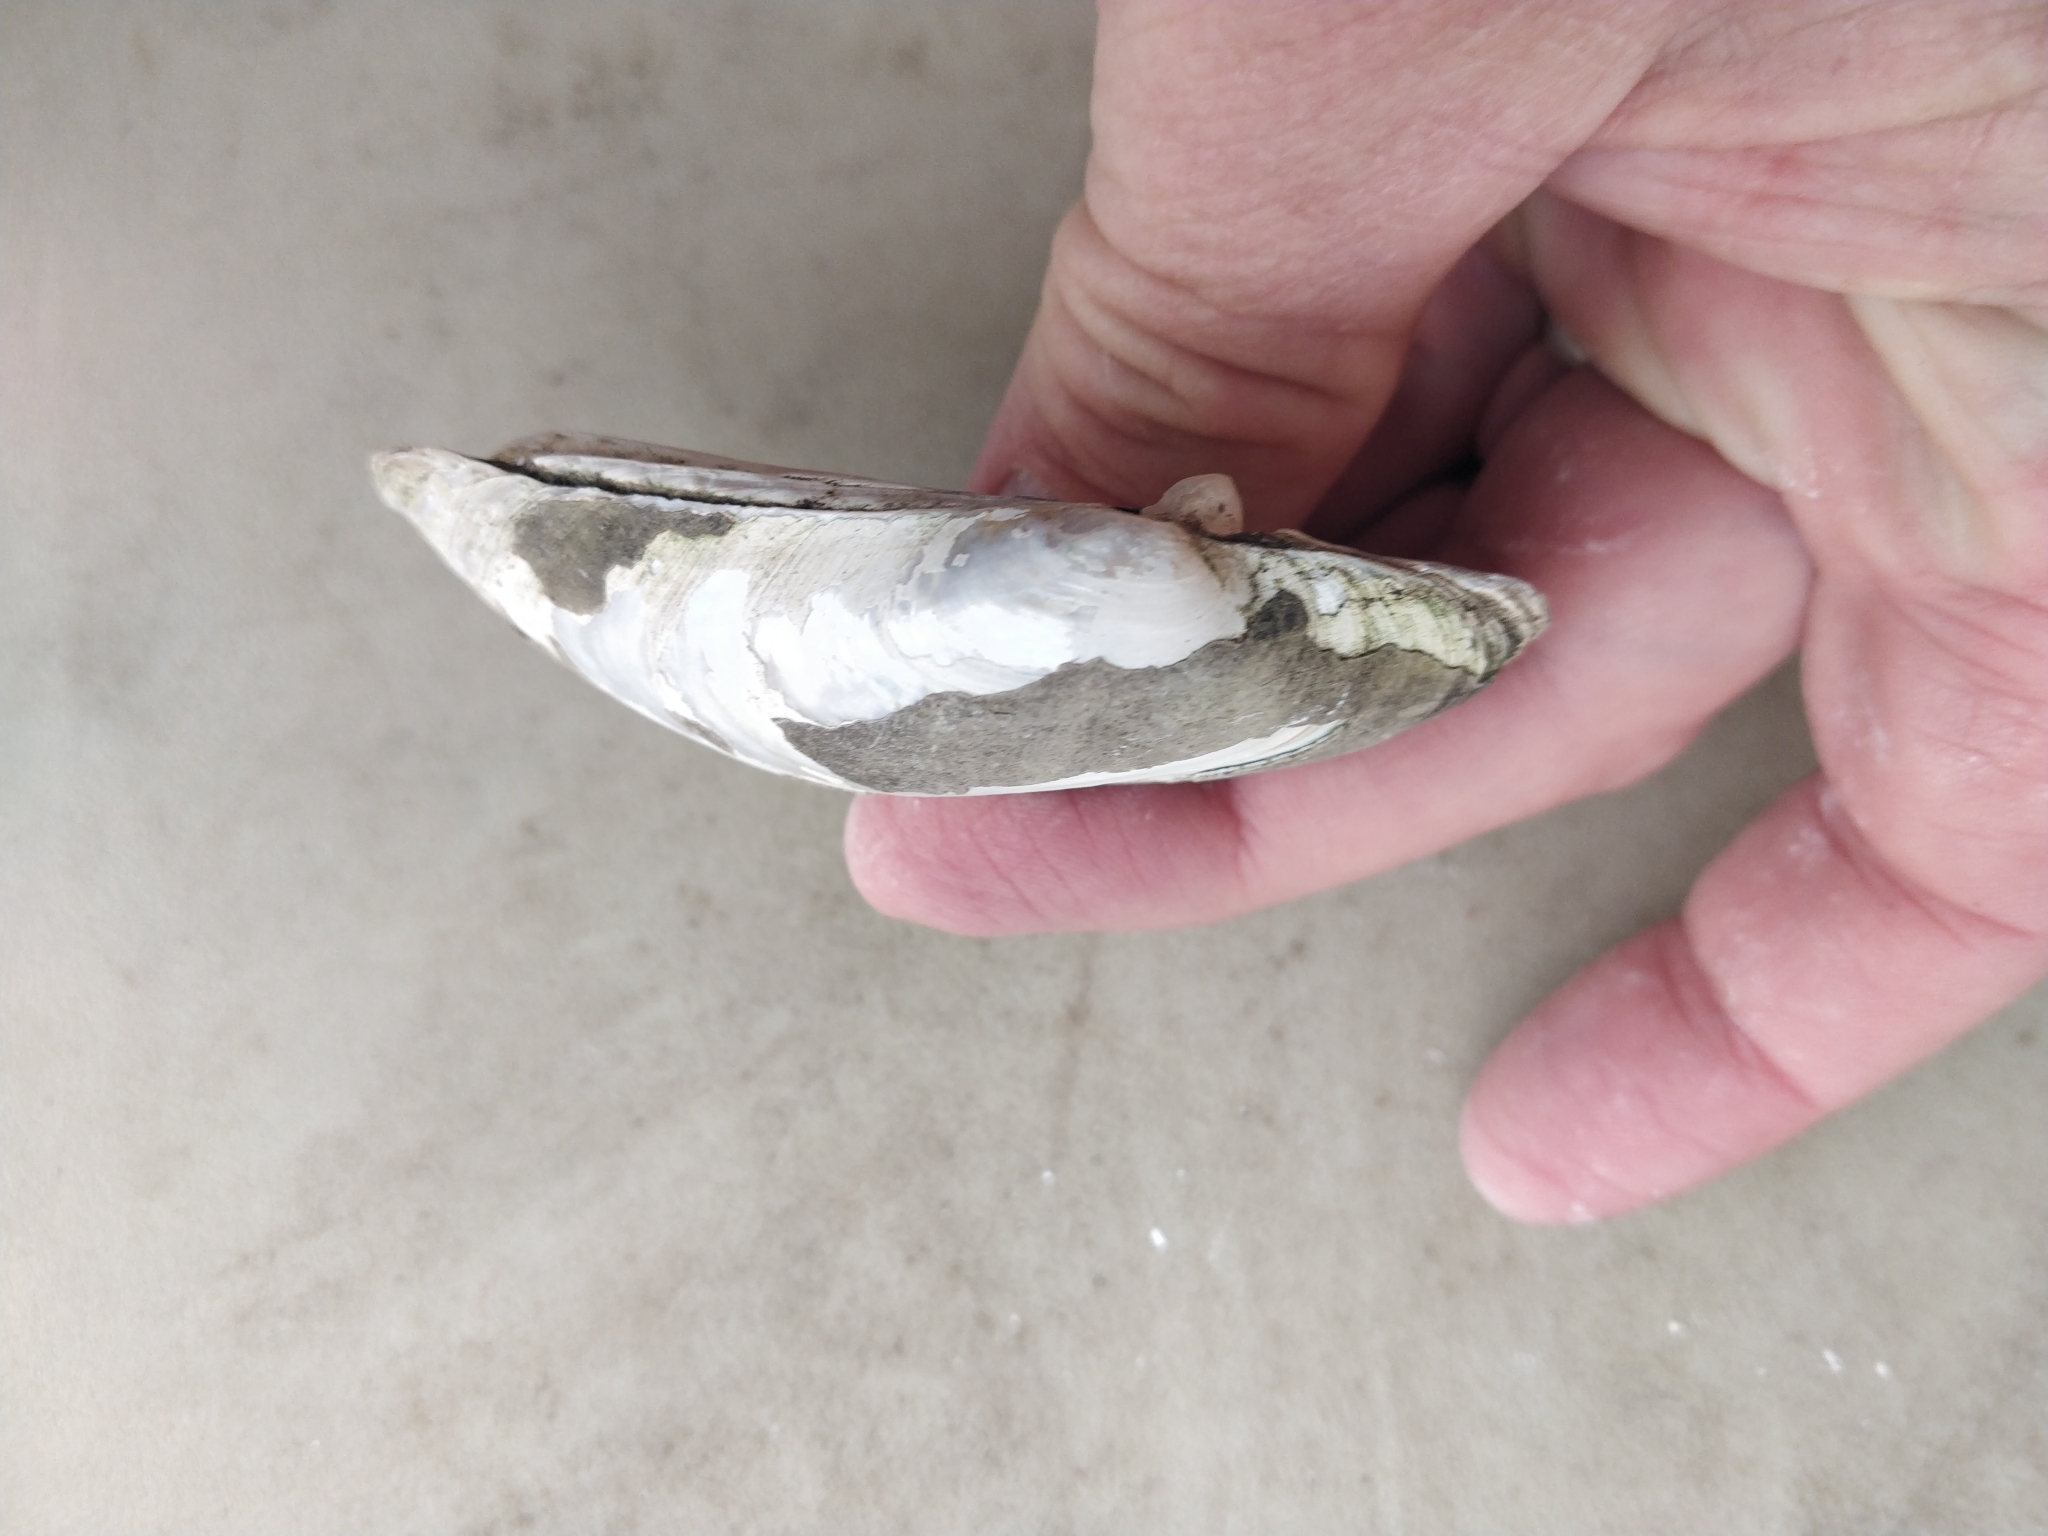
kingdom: Animalia
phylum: Mollusca
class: Bivalvia
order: Unionida
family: Unionidae
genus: Lampsilis
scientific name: Lampsilis siliquoidea
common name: Fatmucket
